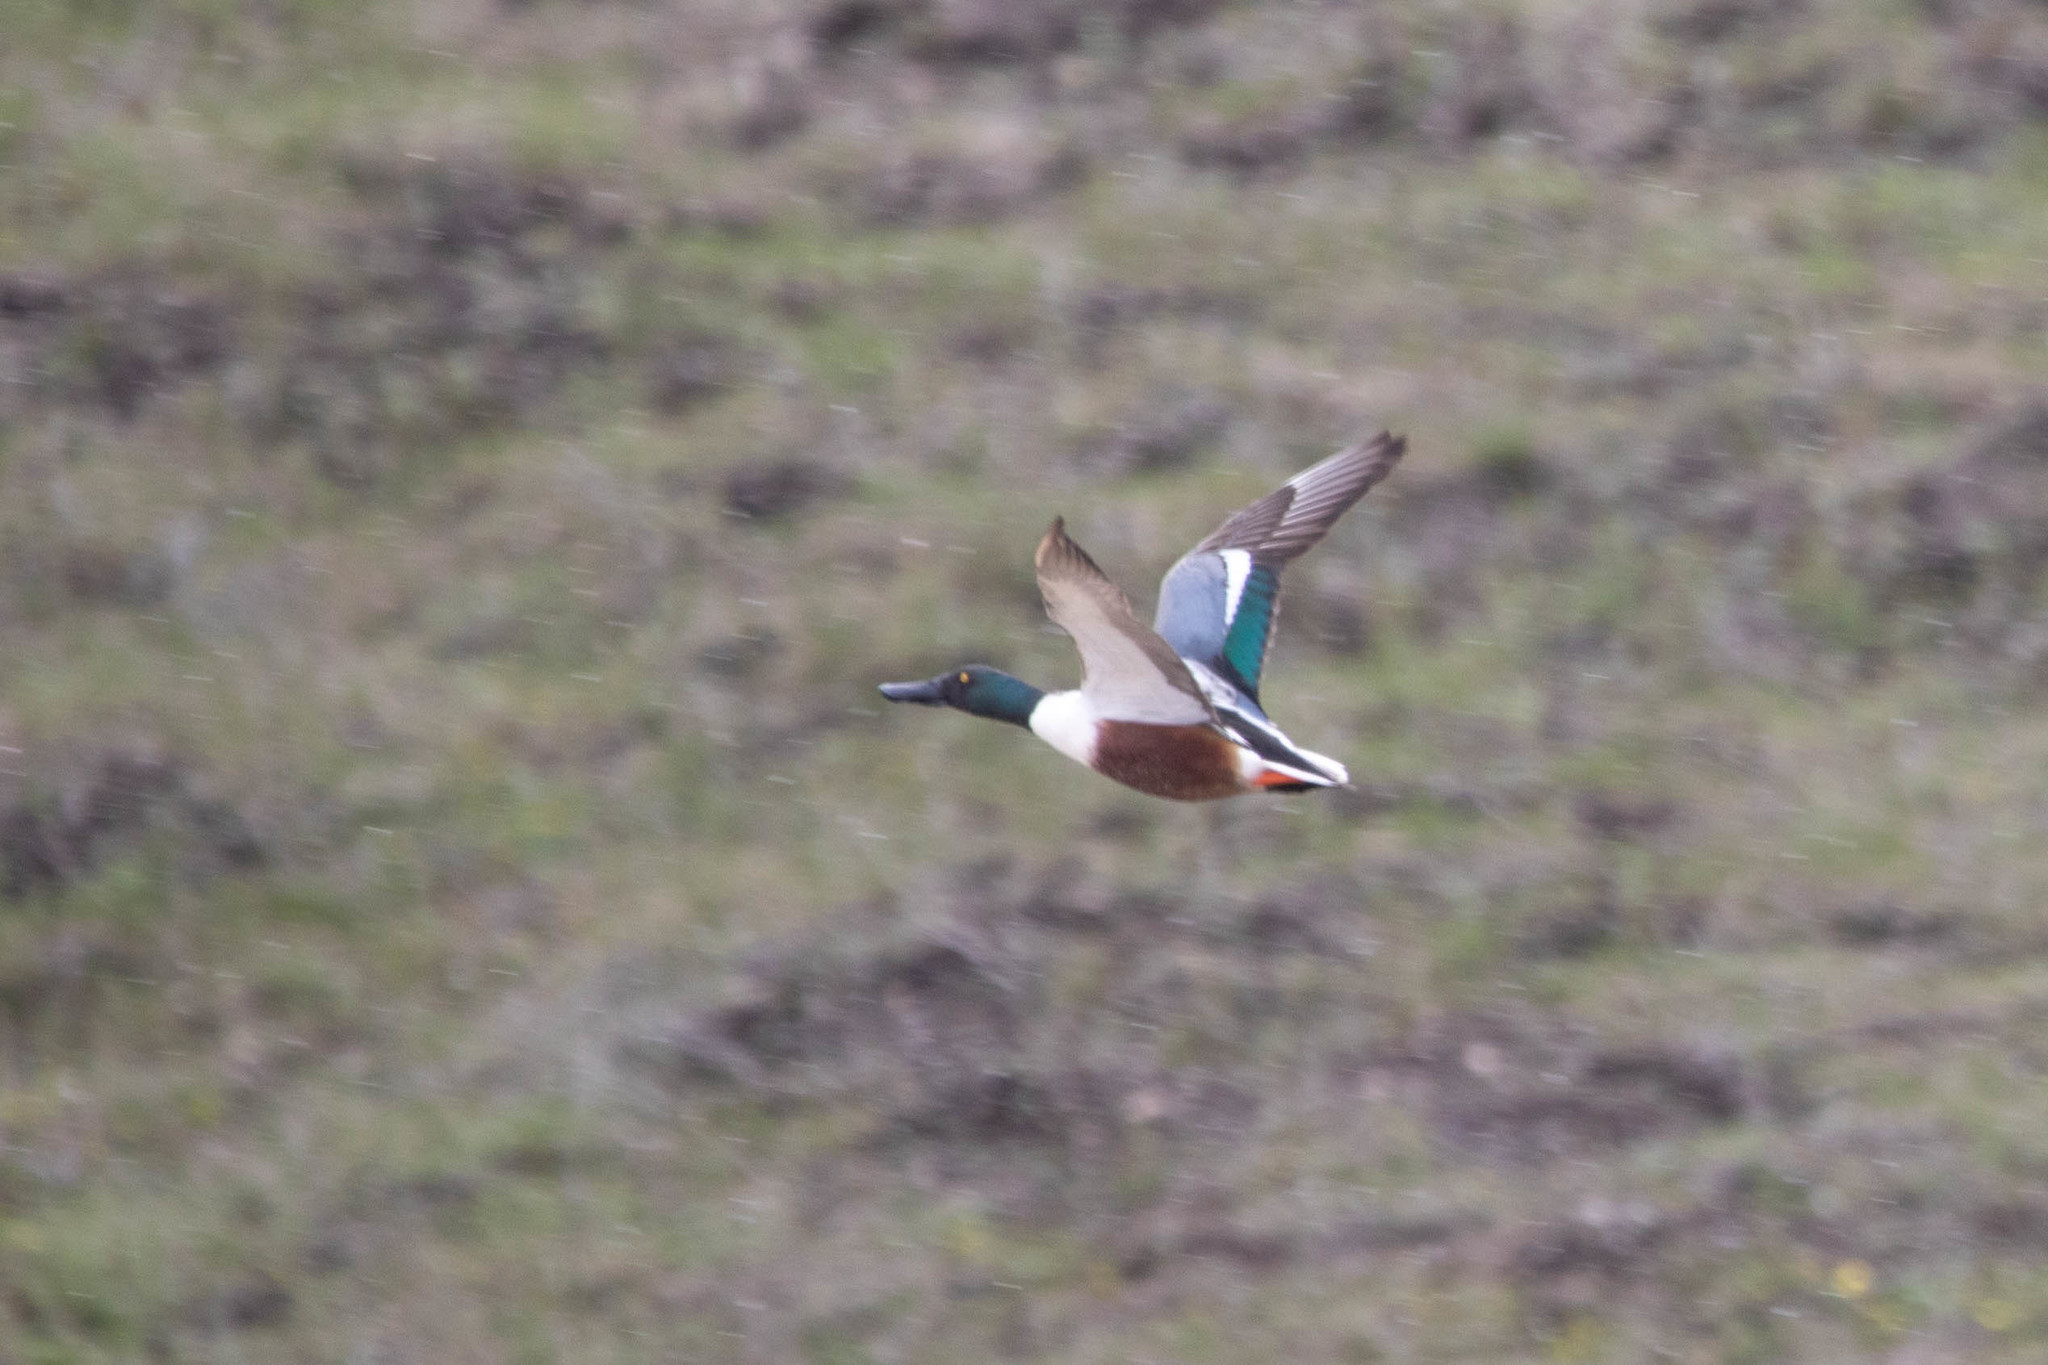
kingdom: Animalia
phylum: Chordata
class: Aves
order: Anseriformes
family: Anatidae
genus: Spatula
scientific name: Spatula clypeata
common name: Northern shoveler
